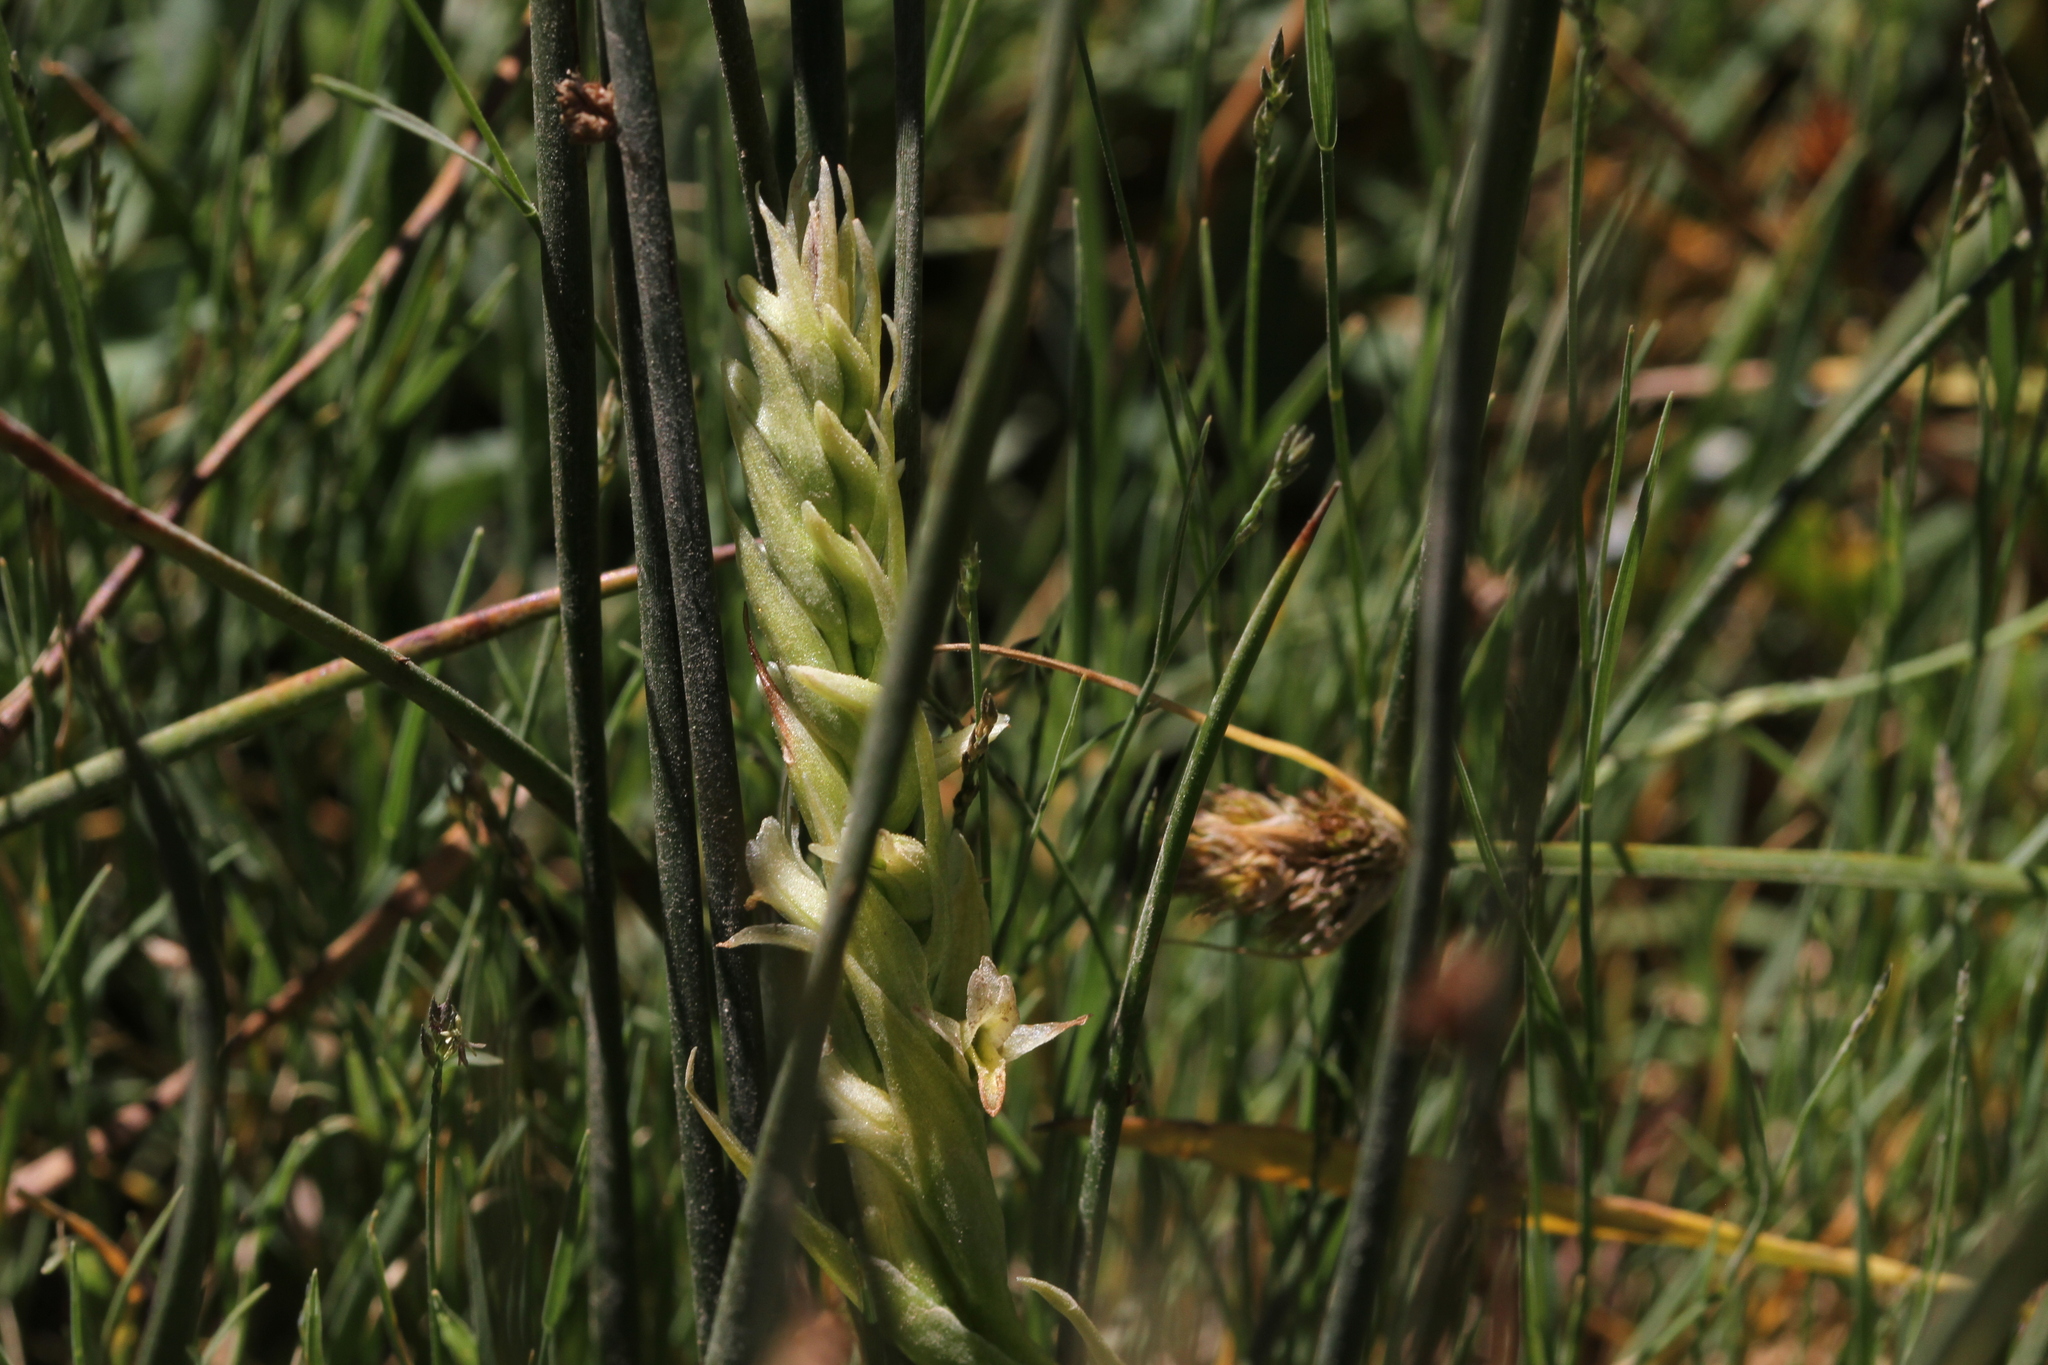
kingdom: Plantae
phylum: Tracheophyta
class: Liliopsida
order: Asparagales
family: Orchidaceae
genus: Spiranthes
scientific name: Spiranthes stellata
